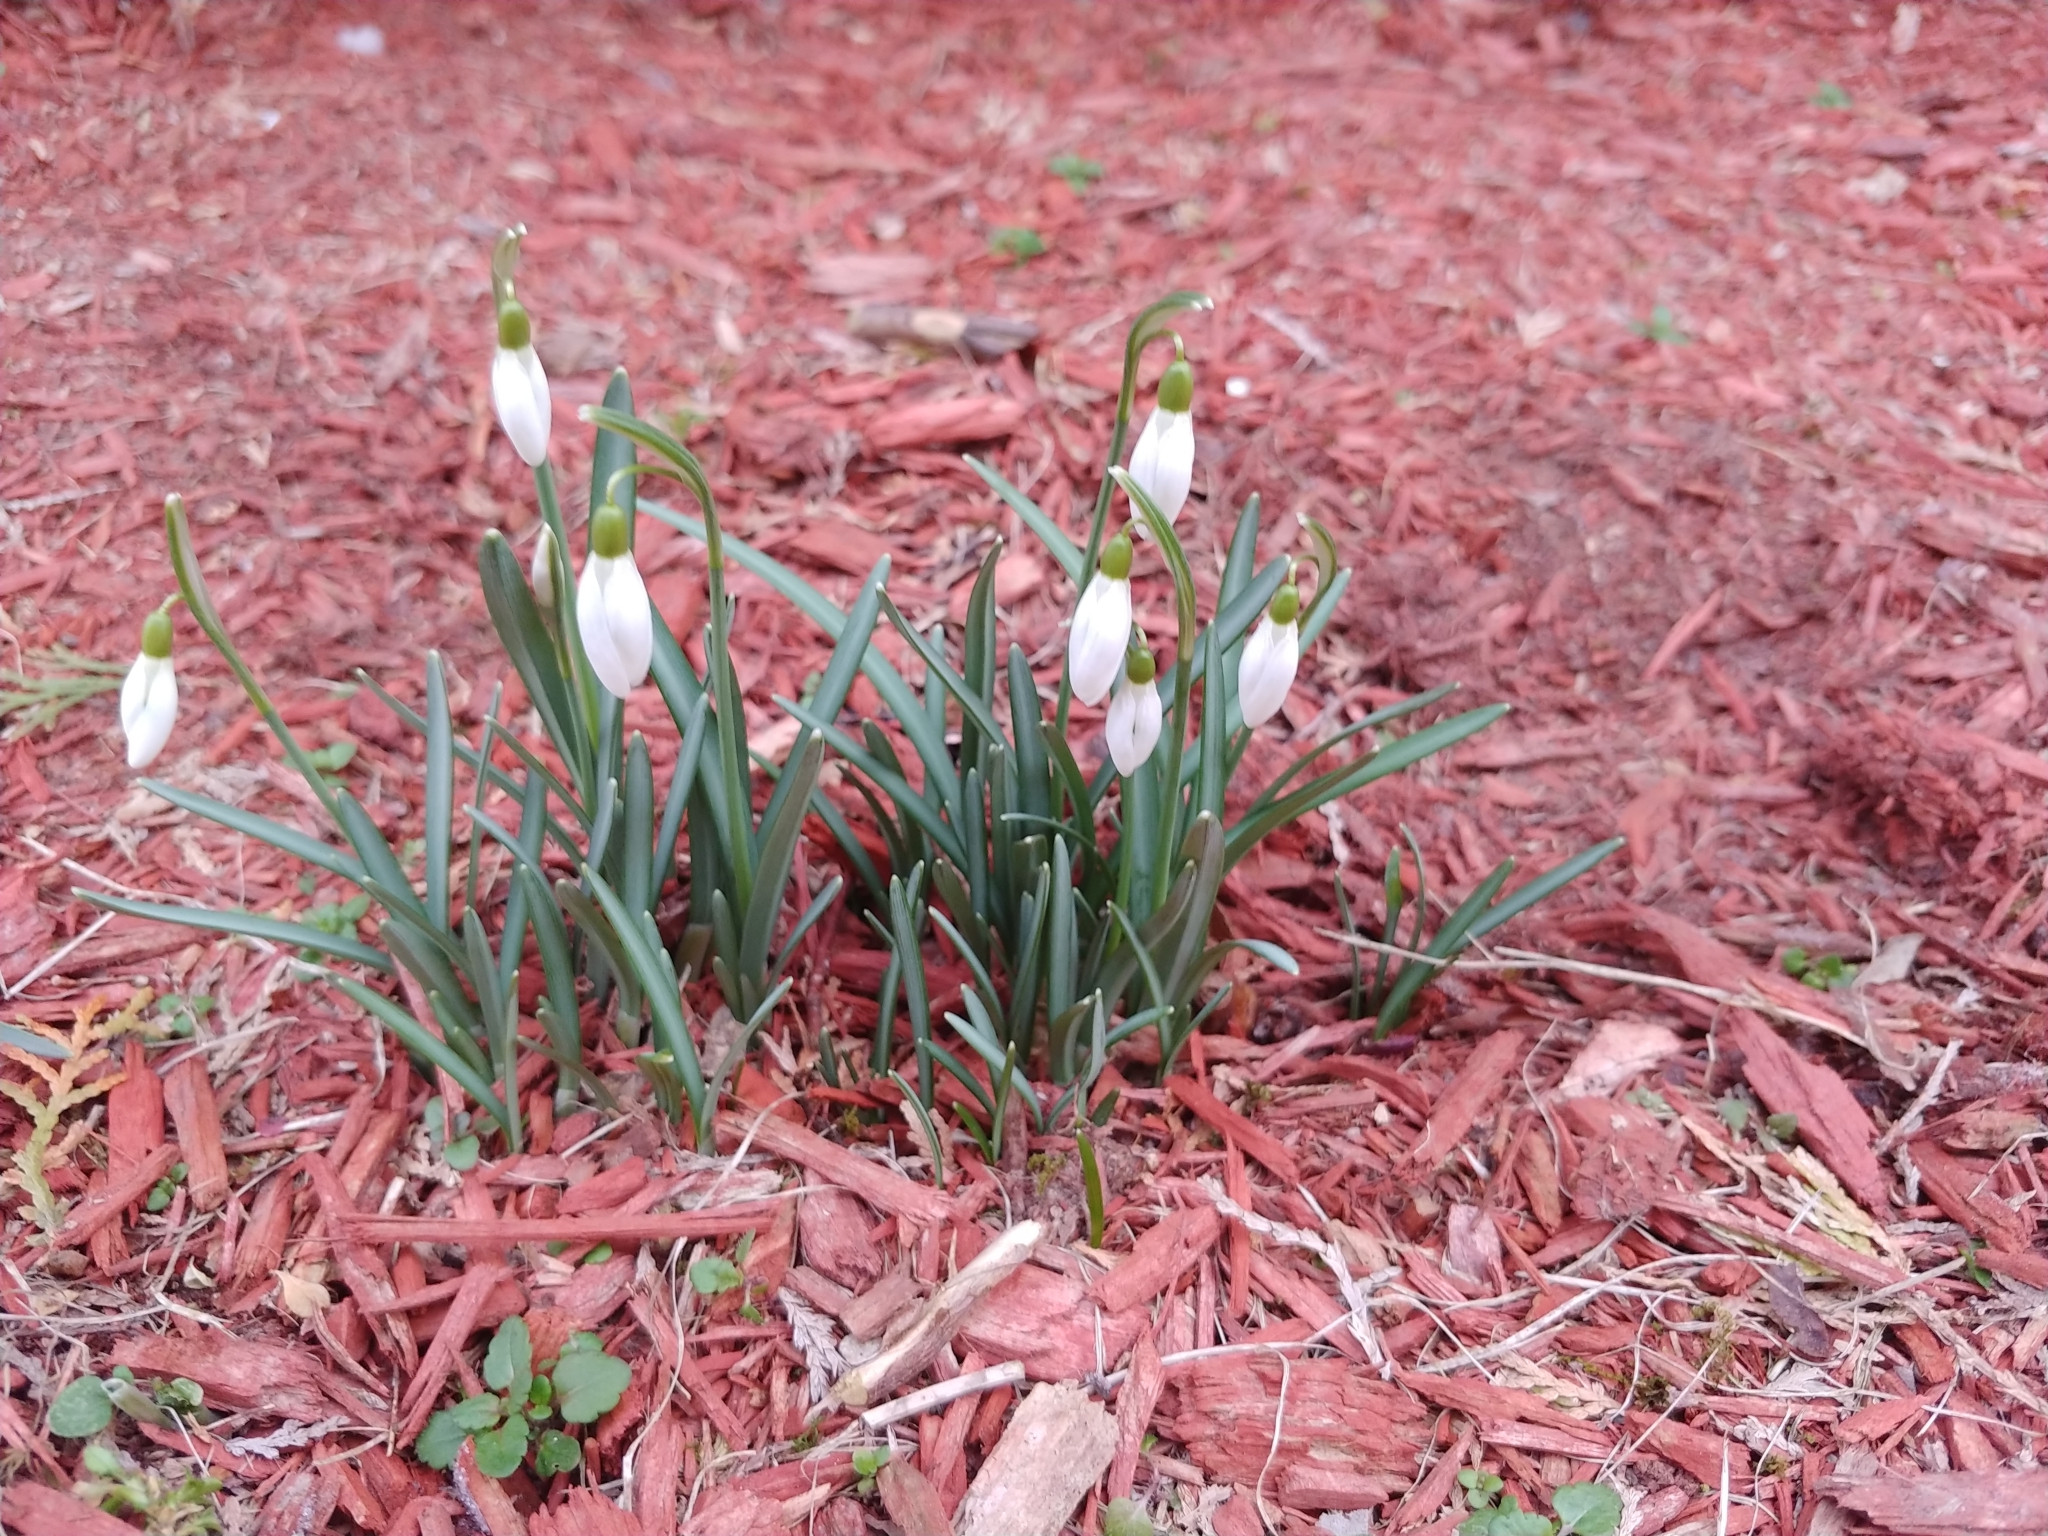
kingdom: Plantae
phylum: Tracheophyta
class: Liliopsida
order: Asparagales
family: Amaryllidaceae
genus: Galanthus
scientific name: Galanthus nivalis
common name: Snowdrop
